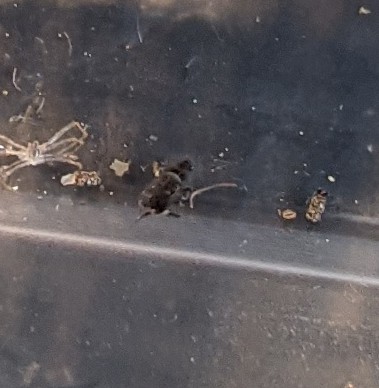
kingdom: Animalia
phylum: Arthropoda
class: Collembola
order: Entomobryomorpha
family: Orchesellidae
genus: Orchesella
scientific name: Orchesella cincta
